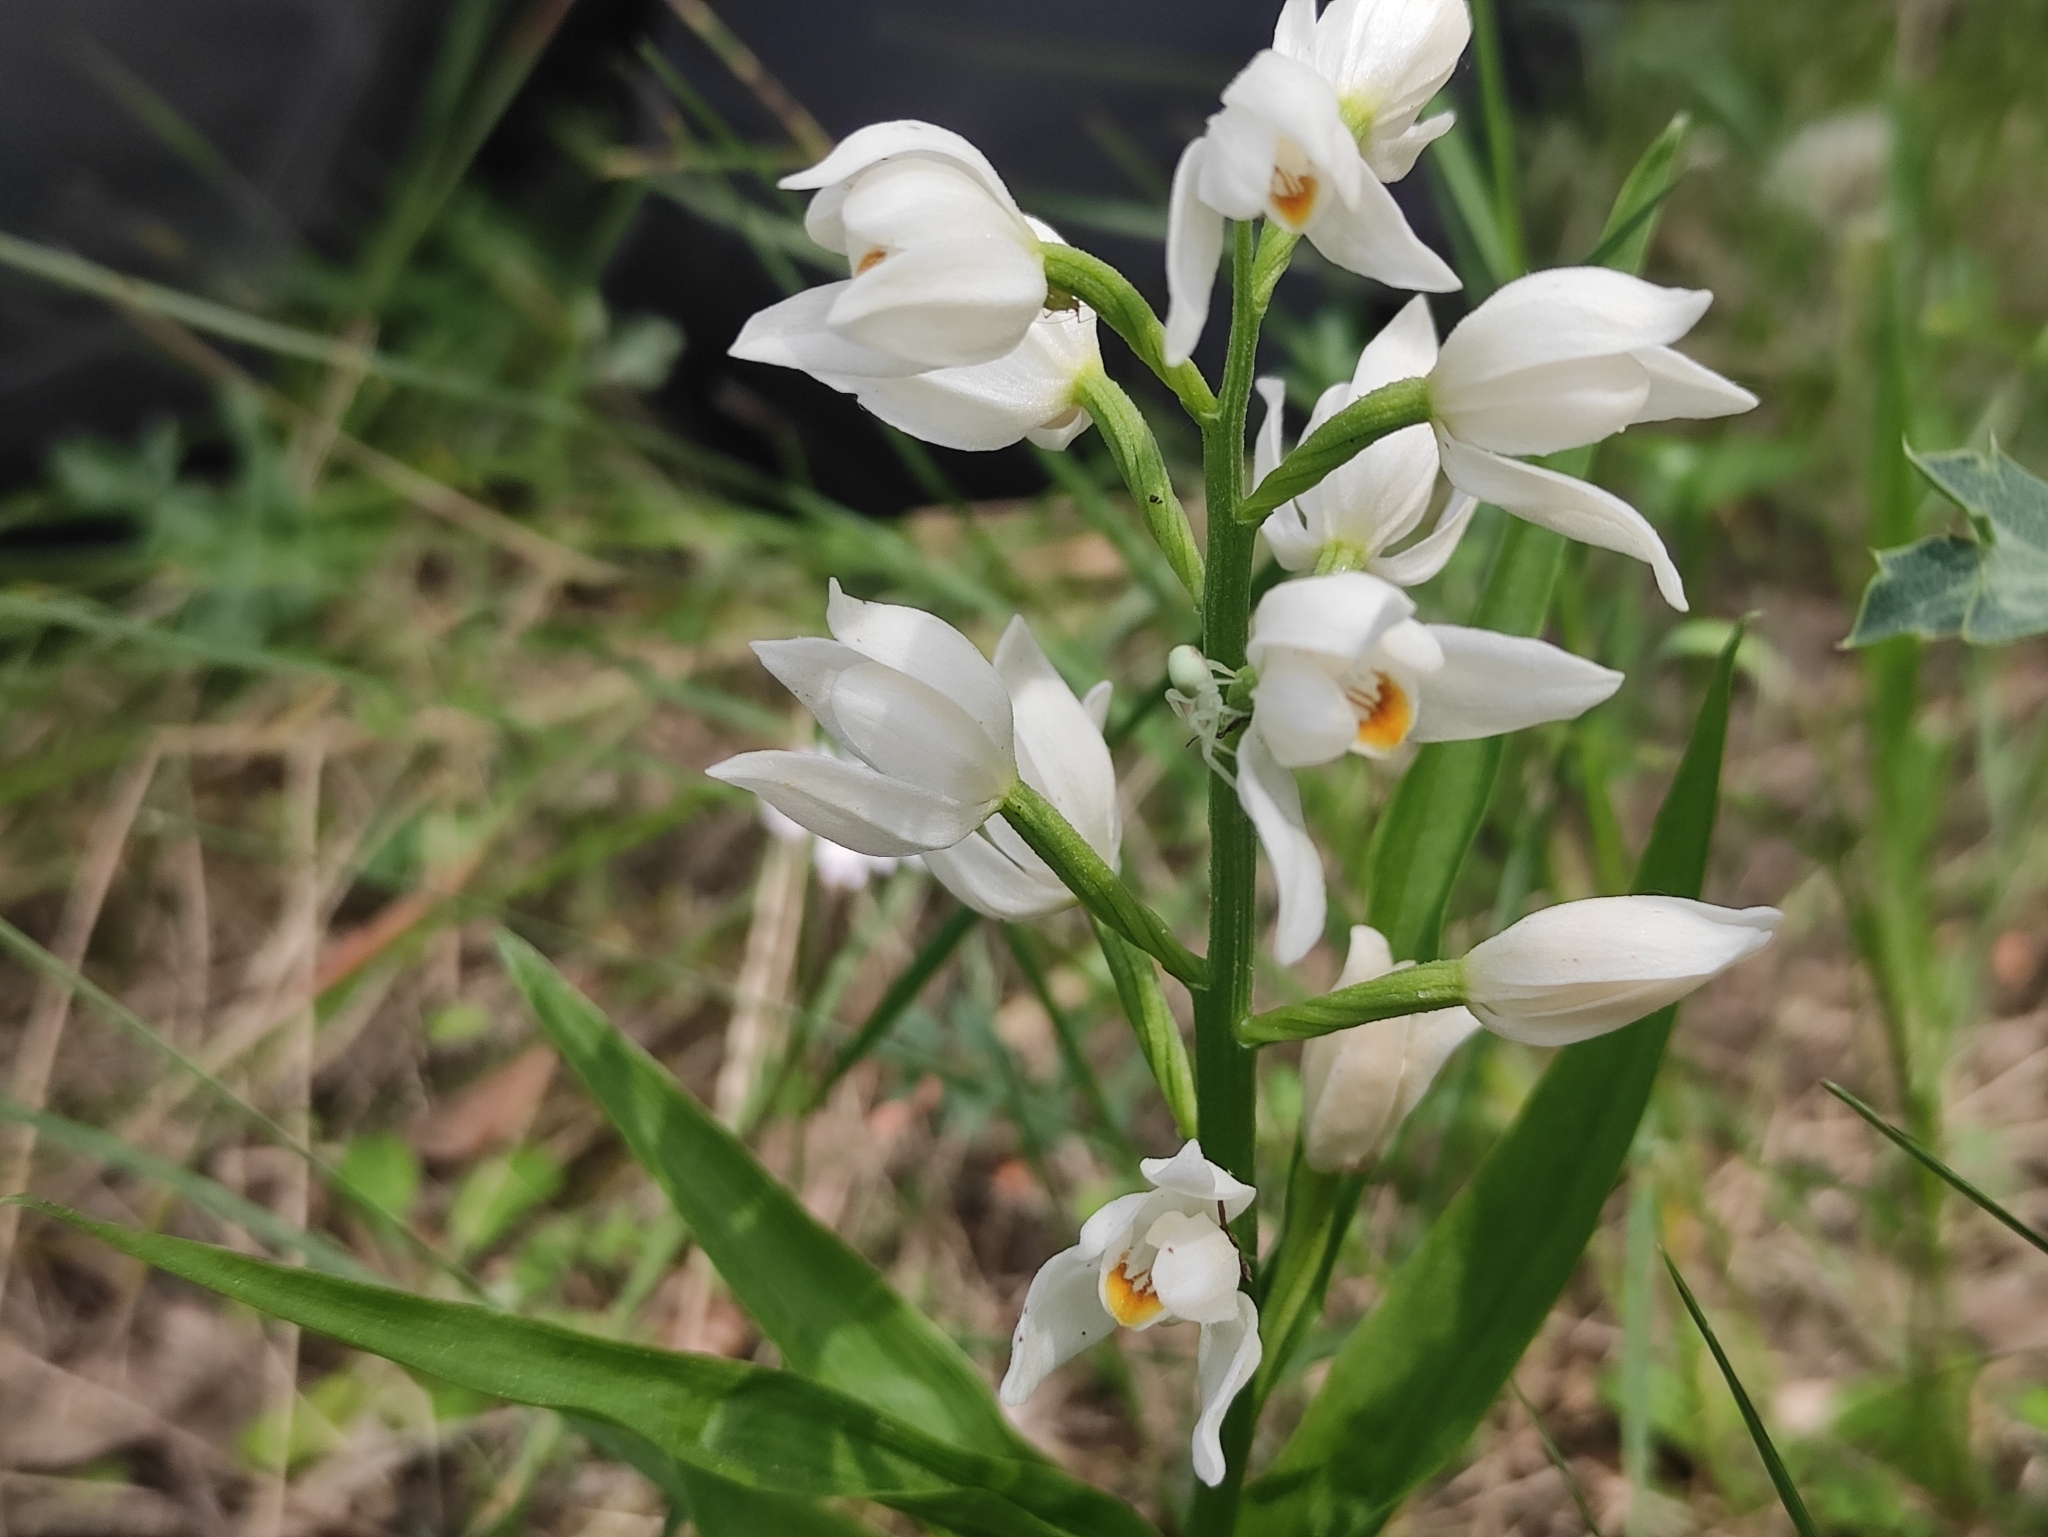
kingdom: Plantae
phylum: Tracheophyta
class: Liliopsida
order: Asparagales
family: Orchidaceae
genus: Cephalanthera
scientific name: Cephalanthera longifolia
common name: Narrow-leaved helleborine
